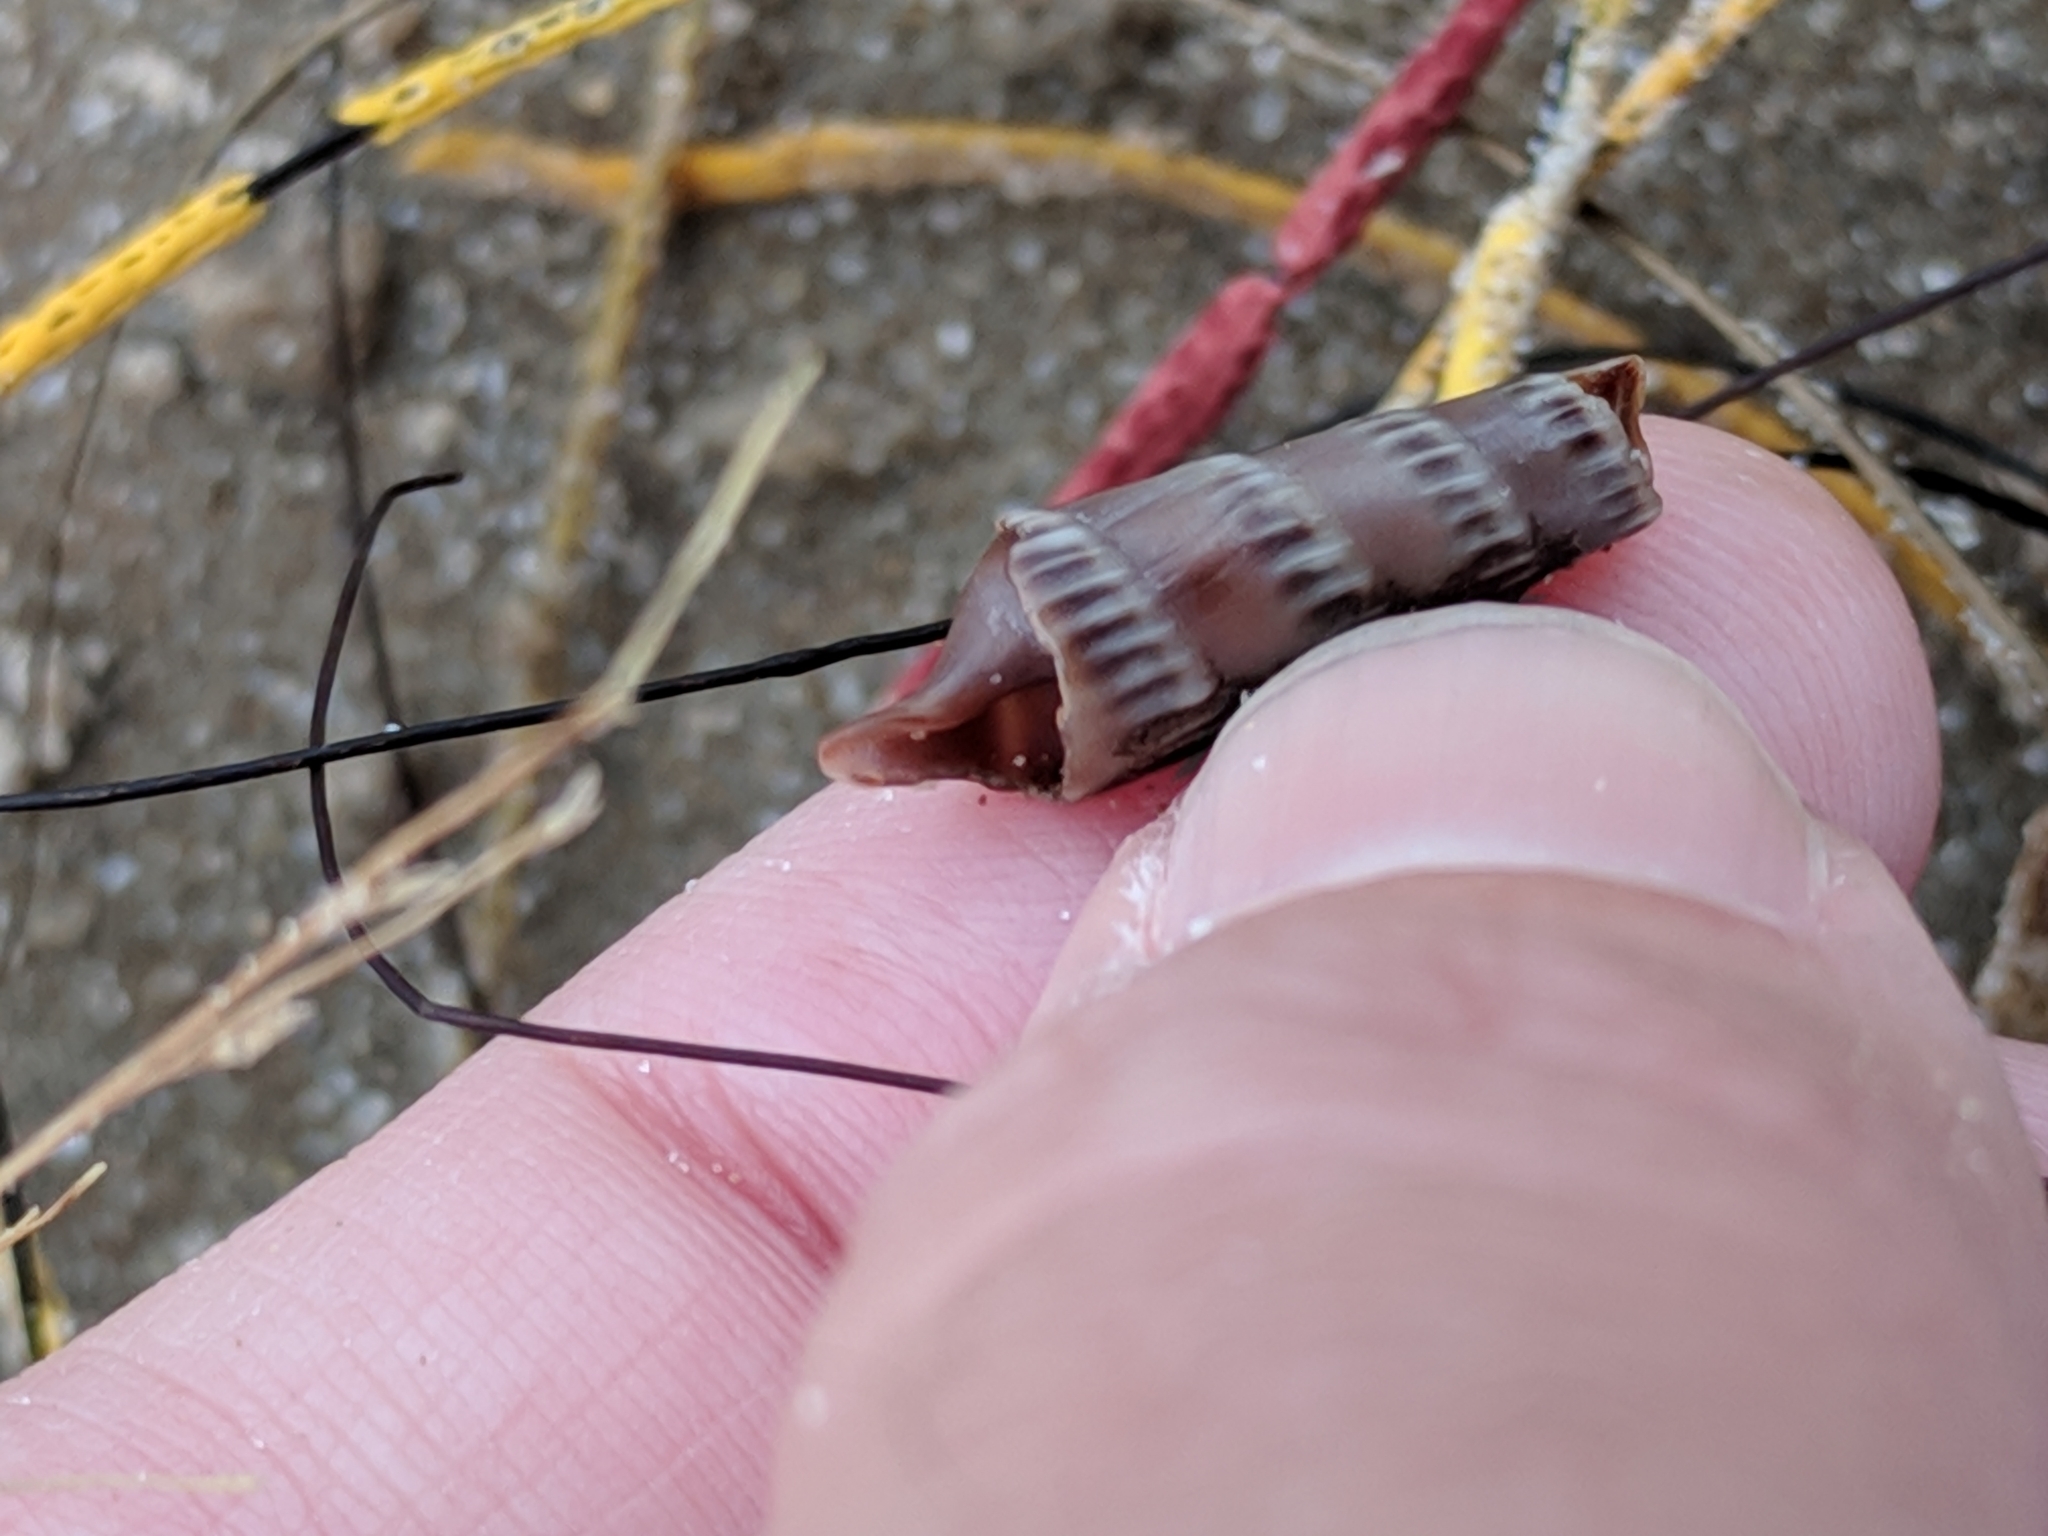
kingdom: Animalia
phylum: Mollusca
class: Gastropoda
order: Neogastropoda
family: Terebridae
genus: Hastula
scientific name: Hastula salleana
